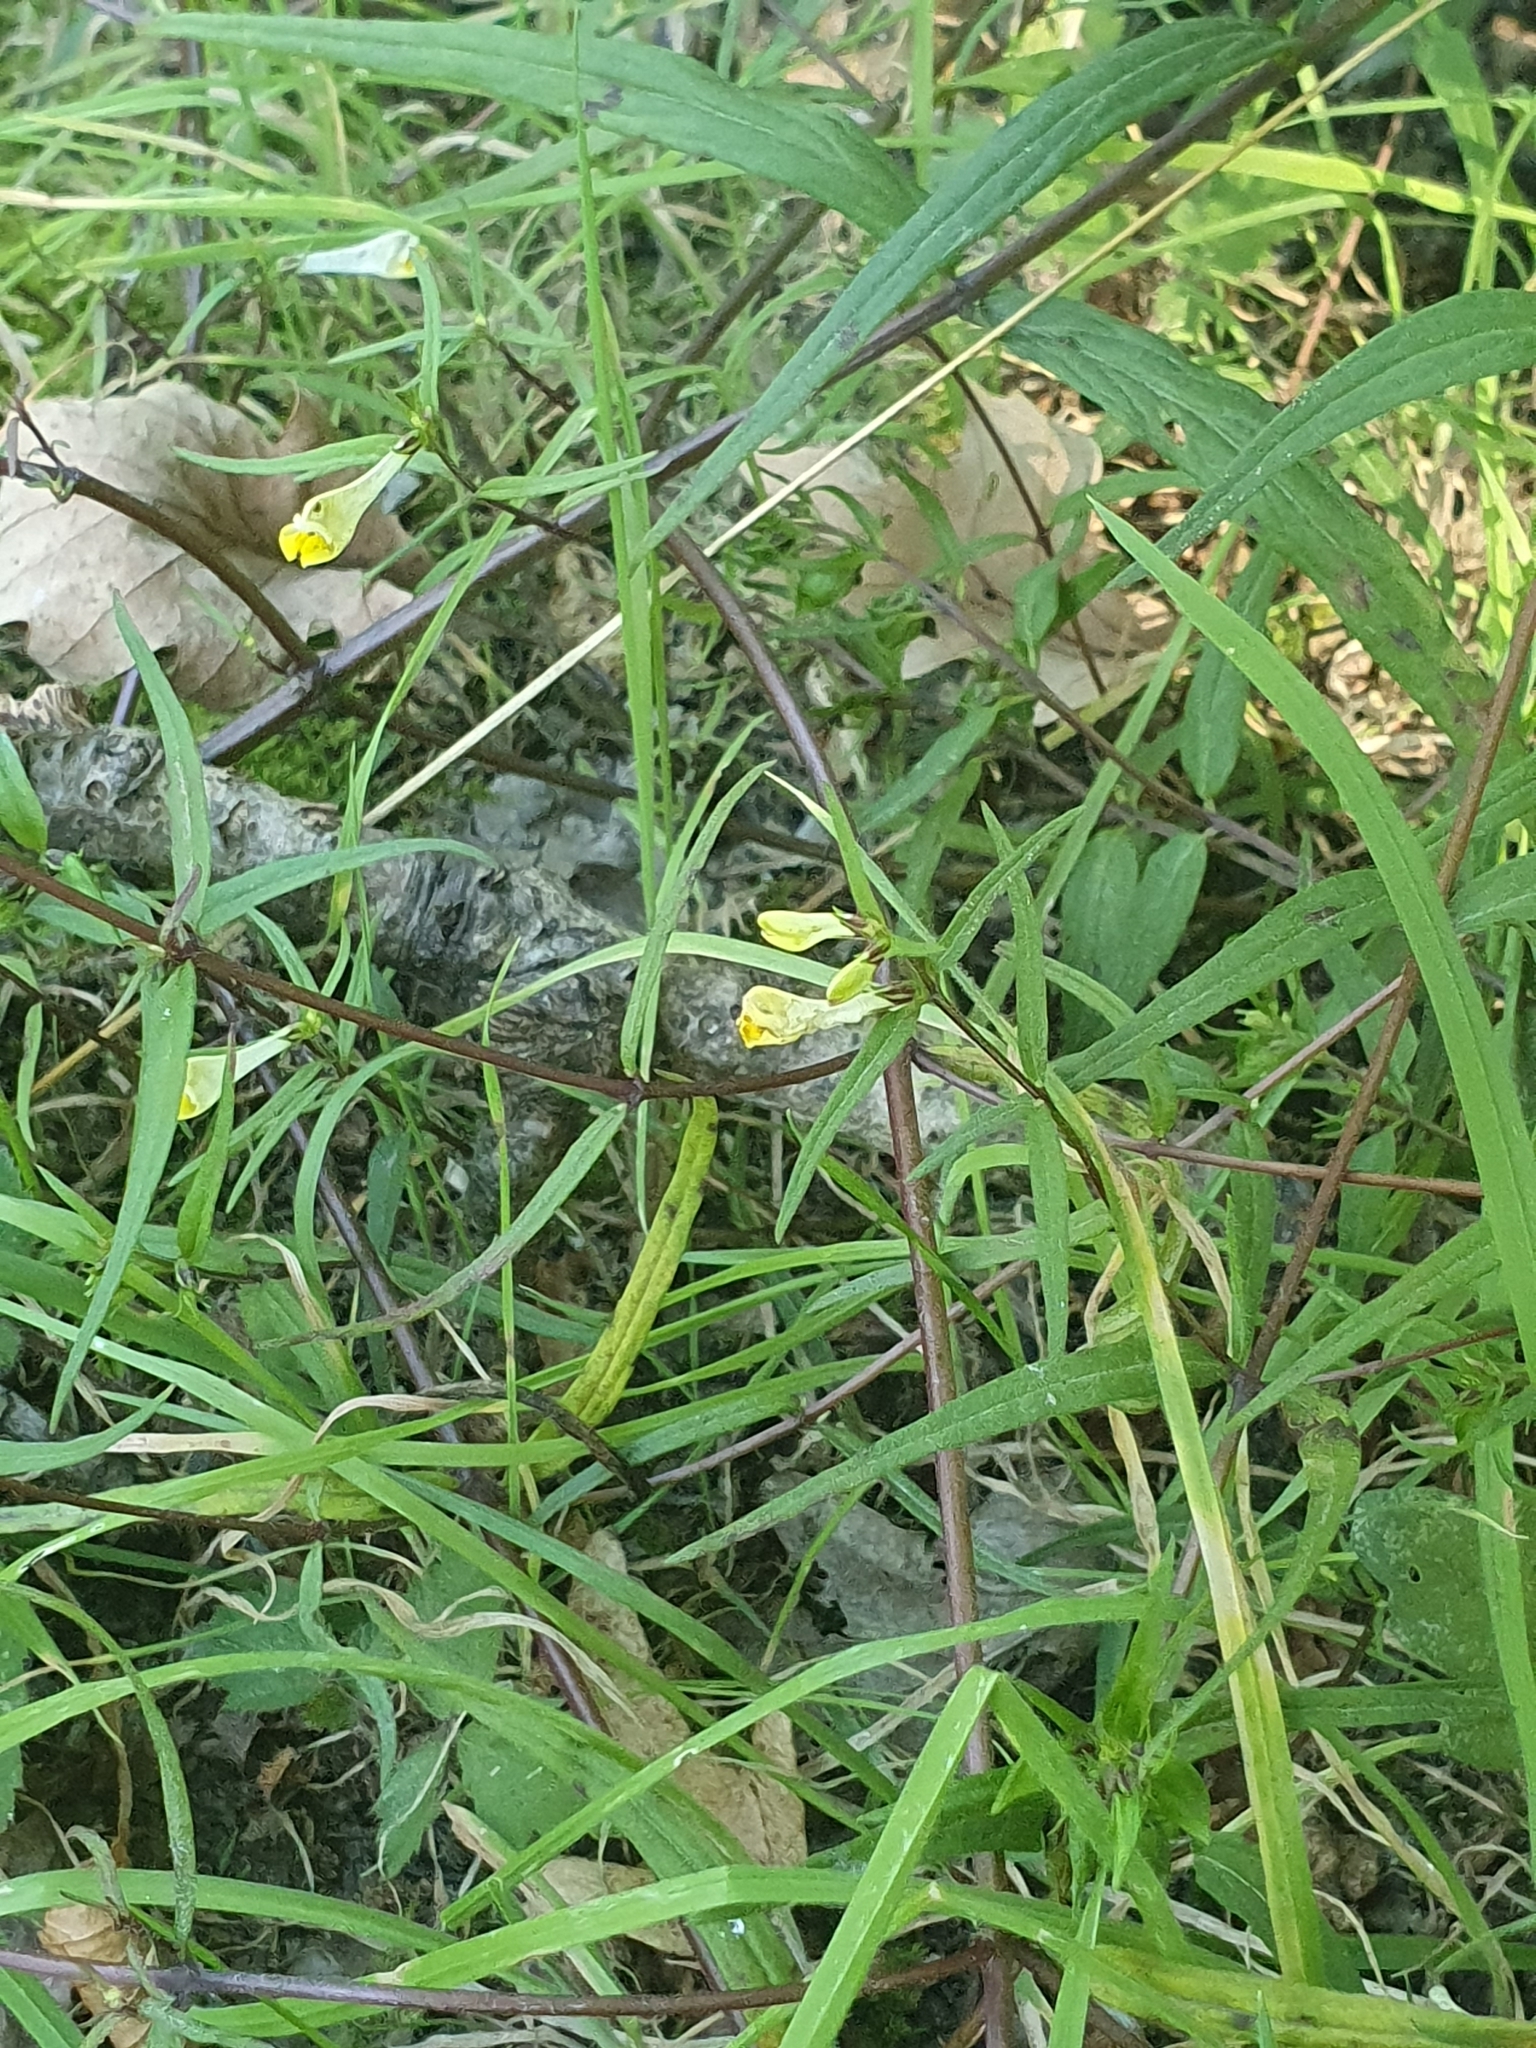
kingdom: Plantae
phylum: Tracheophyta
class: Magnoliopsida
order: Lamiales
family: Orobanchaceae
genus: Melampyrum
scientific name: Melampyrum pratense
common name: Common cow-wheat
